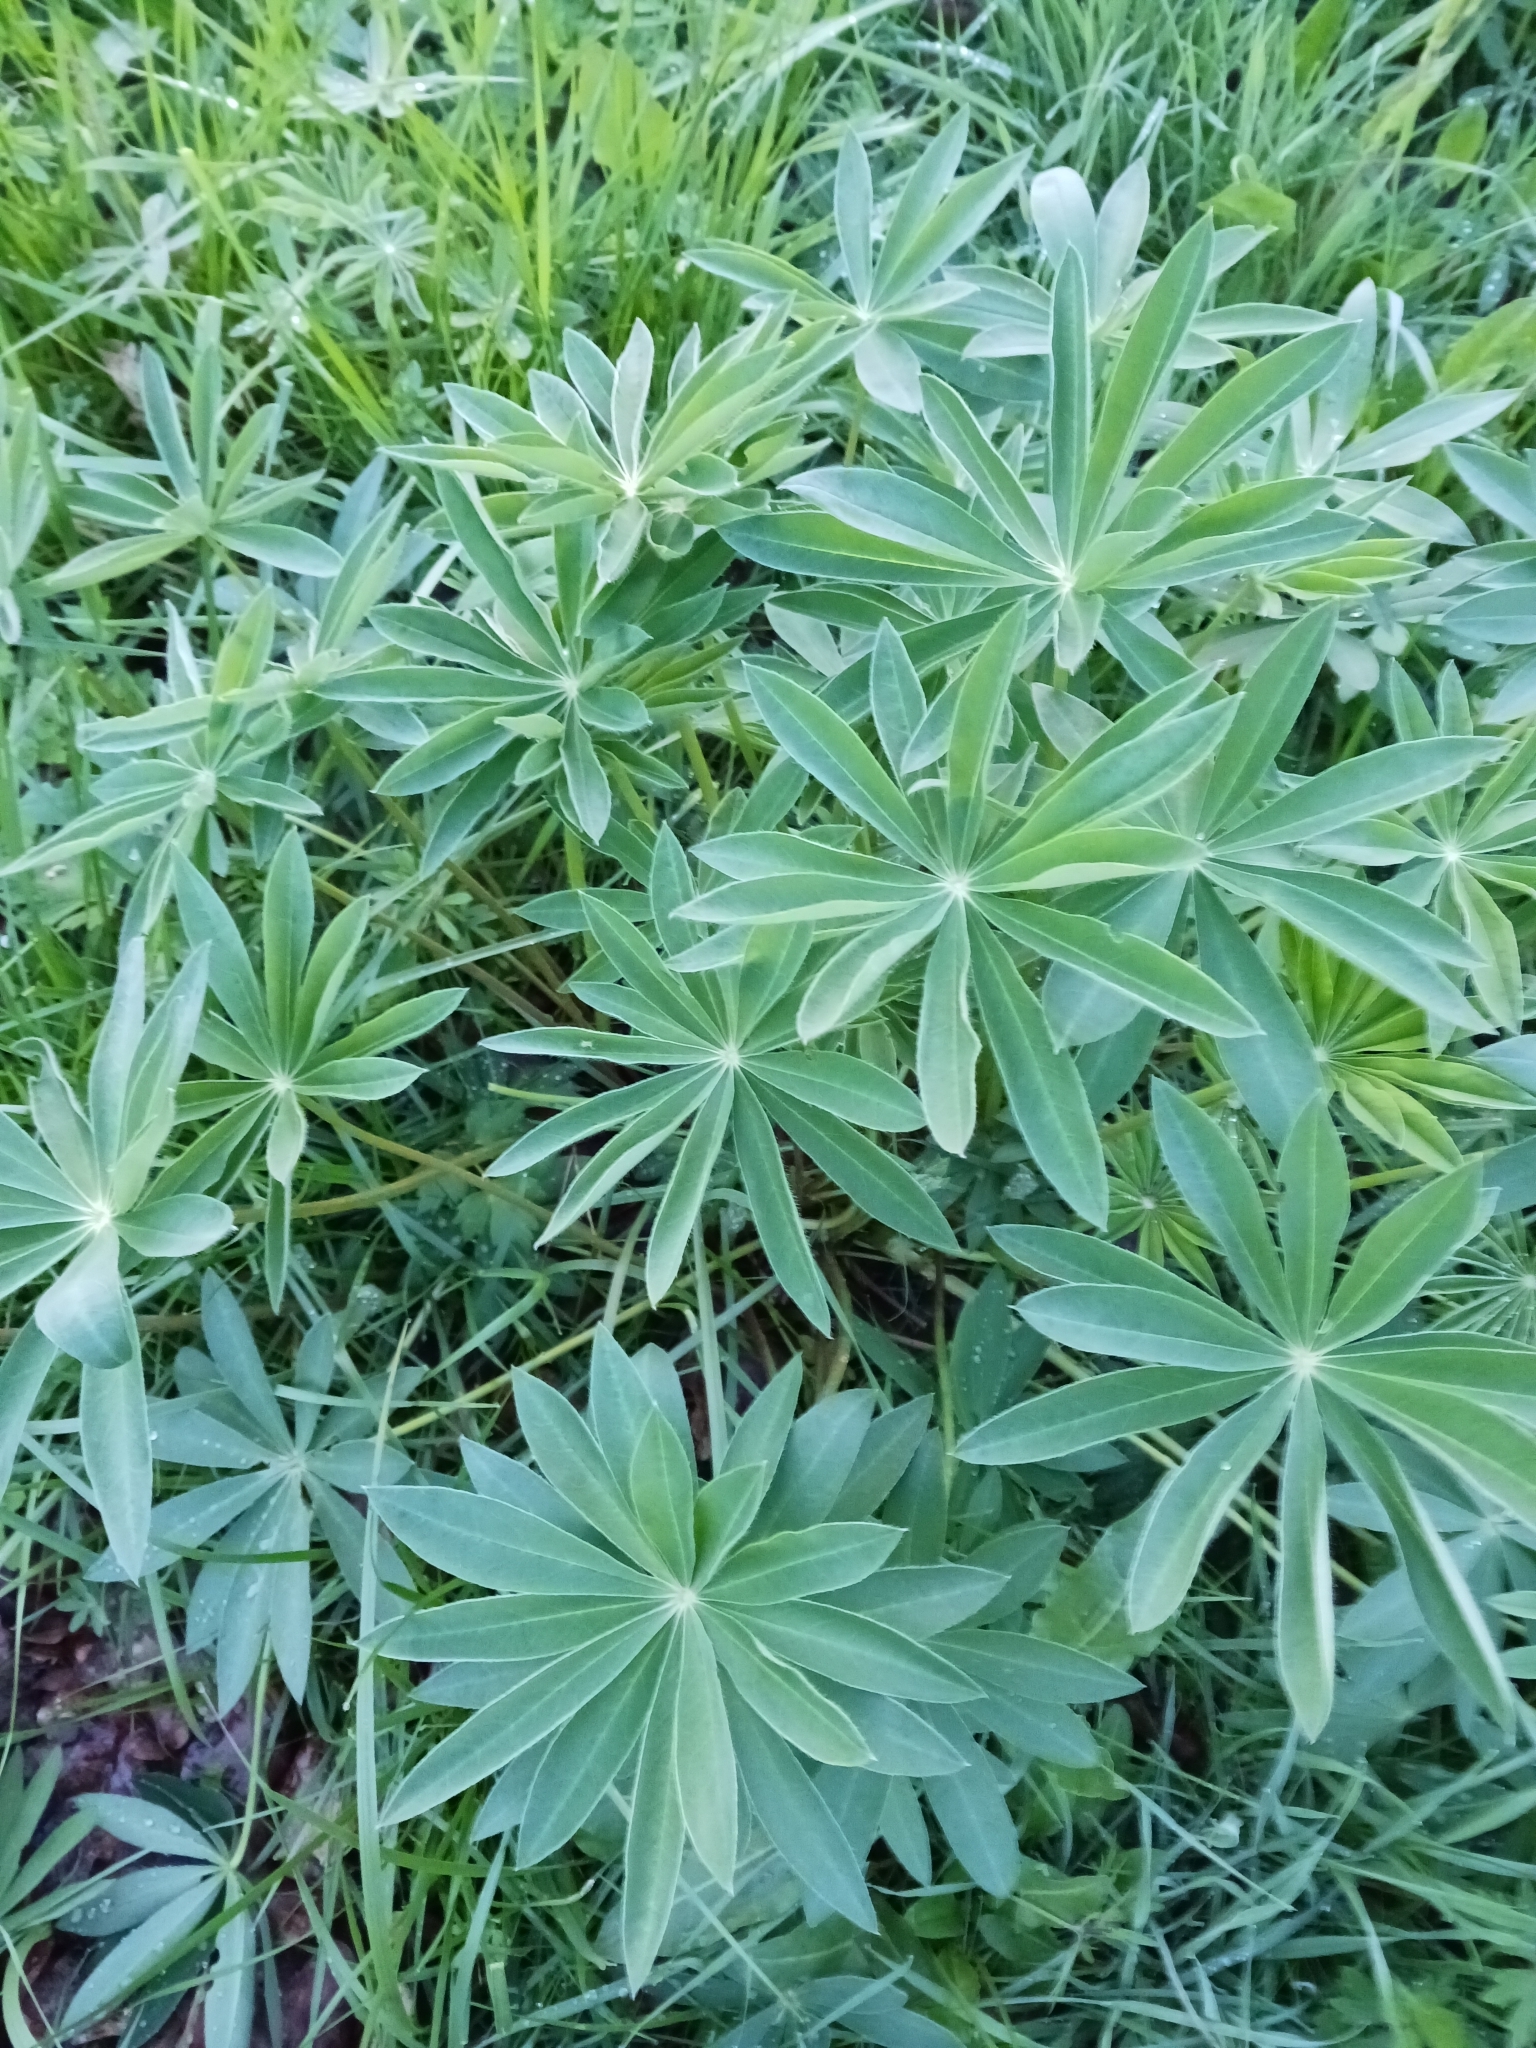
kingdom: Plantae
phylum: Tracheophyta
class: Magnoliopsida
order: Fabales
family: Fabaceae
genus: Lupinus
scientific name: Lupinus polyphyllus
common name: Garden lupin
